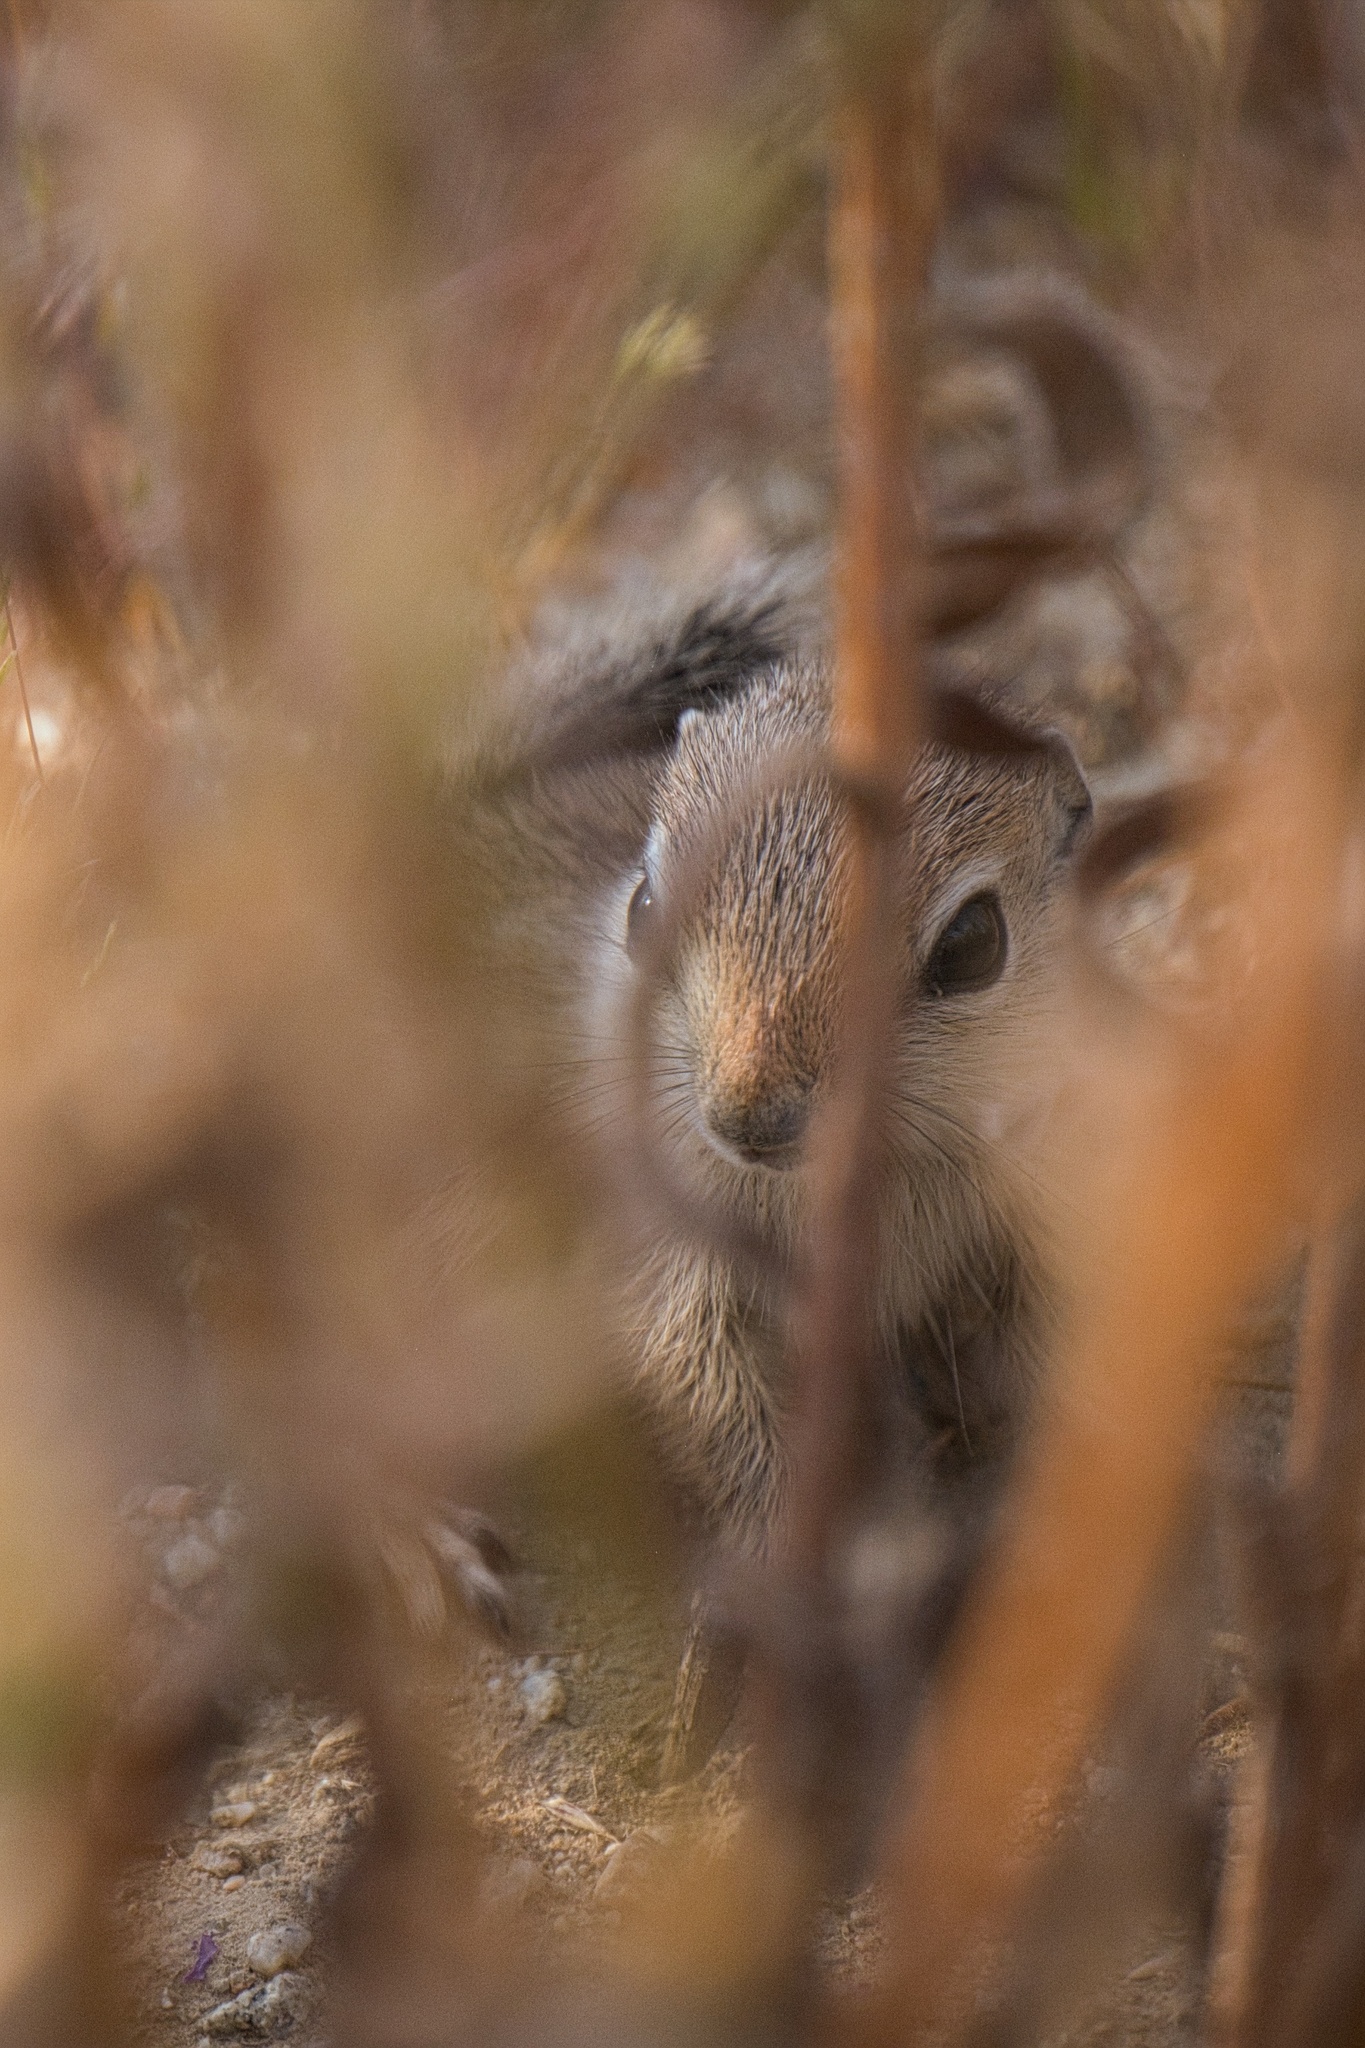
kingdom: Animalia
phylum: Chordata
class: Mammalia
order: Rodentia
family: Sciuridae
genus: Ammospermophilus
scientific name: Ammospermophilus nelsoni
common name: Nelson's antelope squirrel
